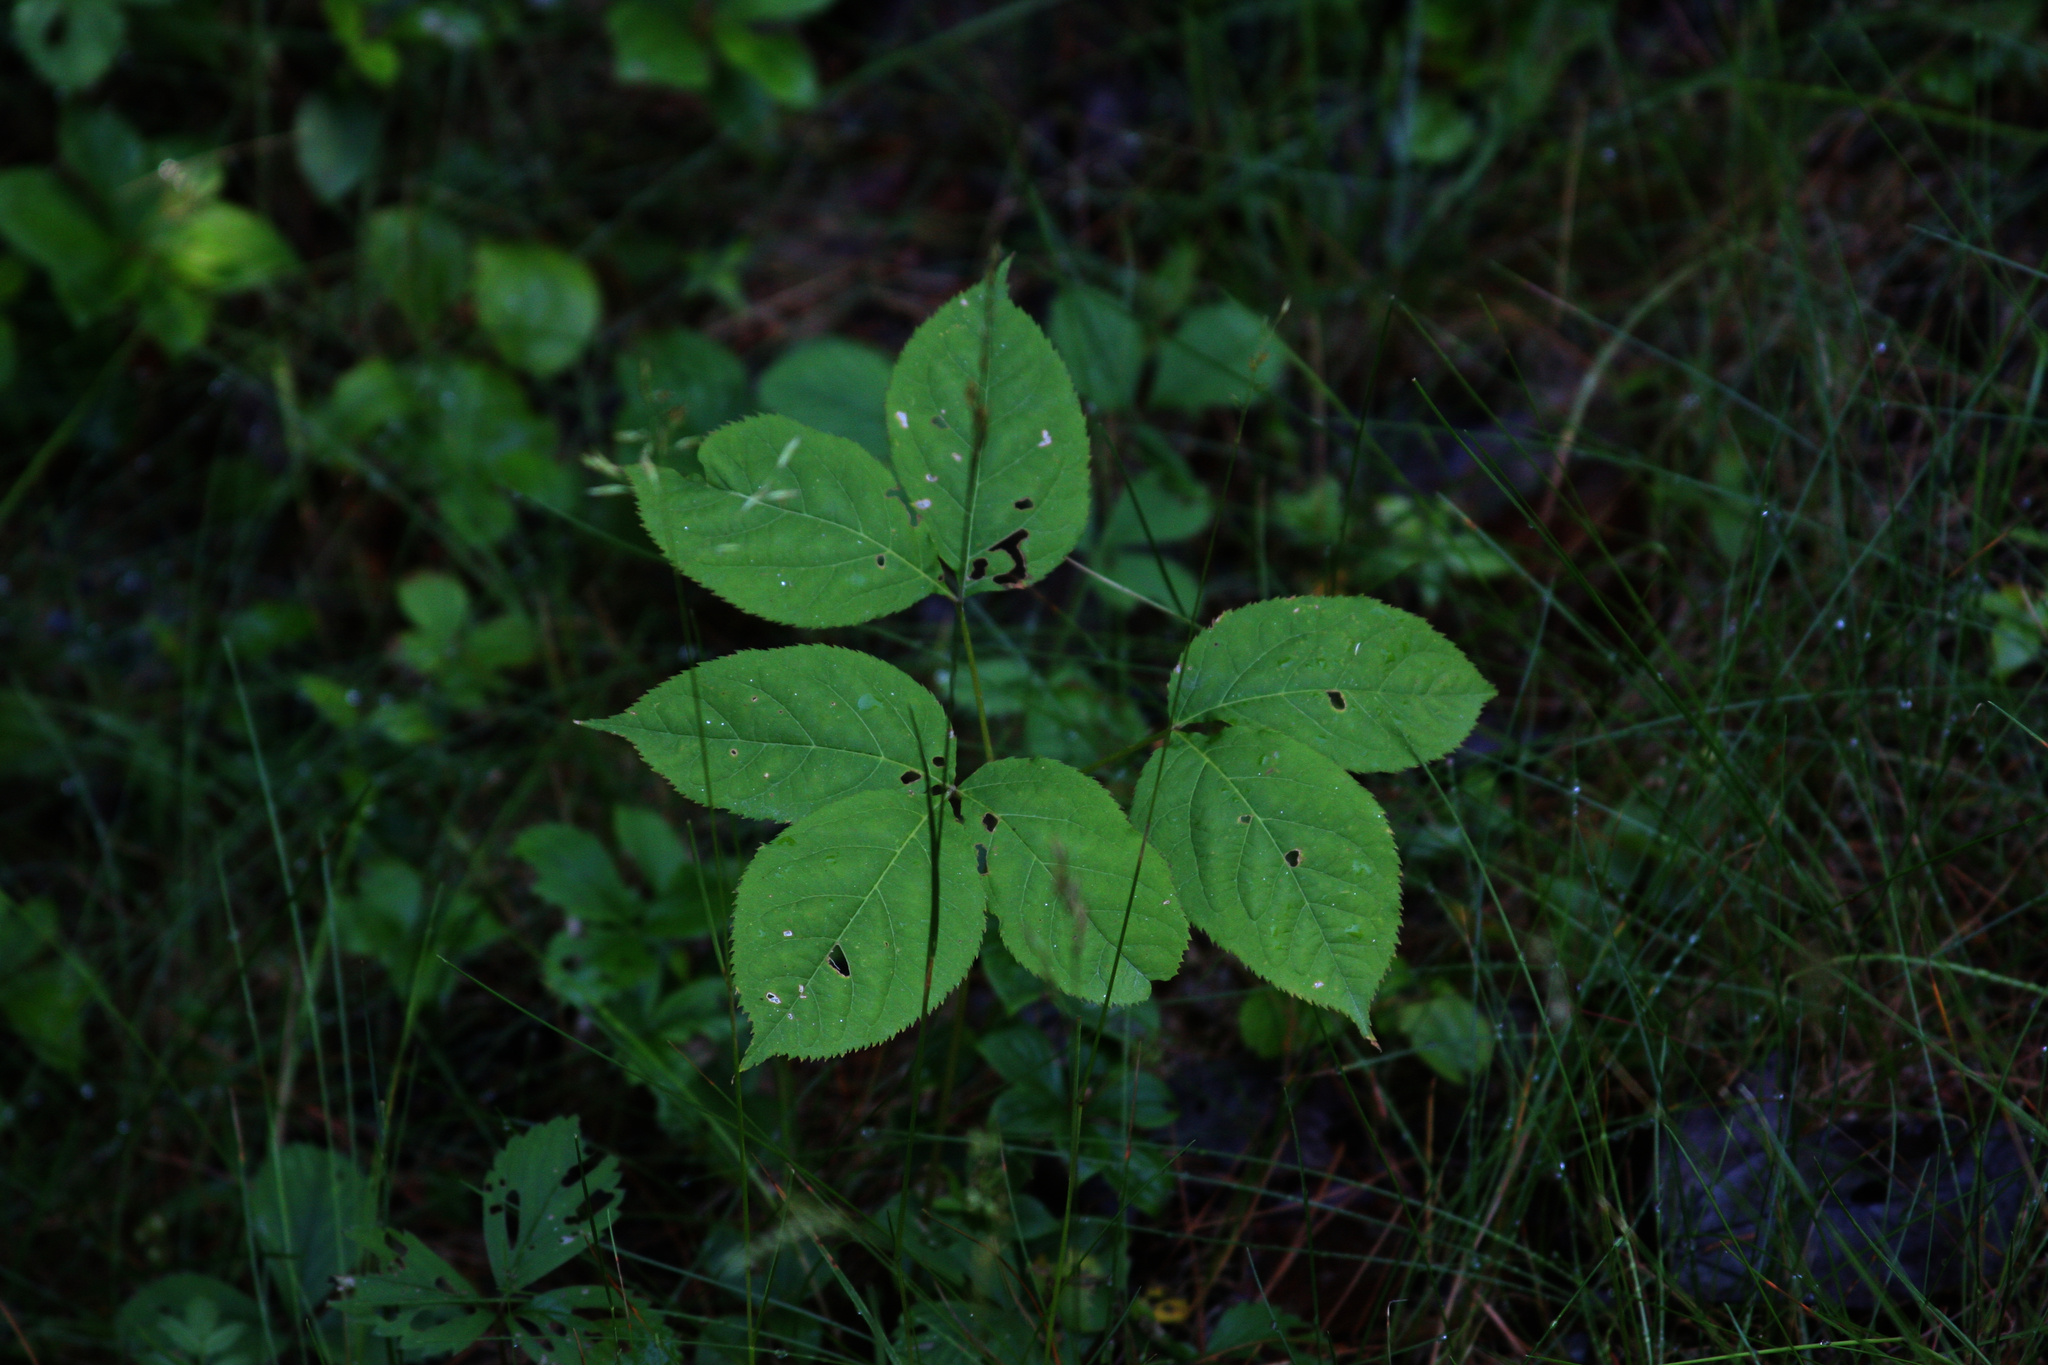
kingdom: Plantae
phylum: Tracheophyta
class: Magnoliopsida
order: Apiales
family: Araliaceae
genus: Aralia
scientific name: Aralia nudicaulis
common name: Wild sarsaparilla
